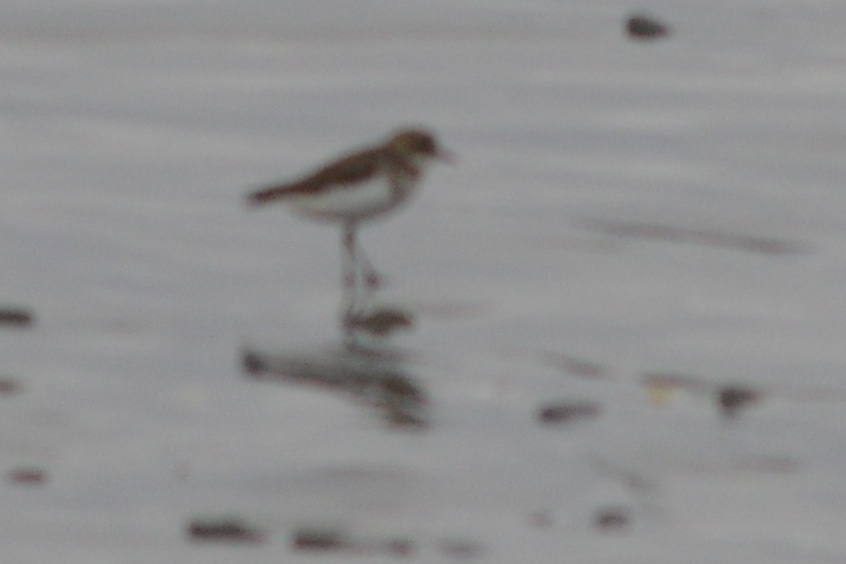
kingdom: Animalia
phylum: Chordata
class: Aves
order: Charadriiformes
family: Charadriidae
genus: Anarhynchus
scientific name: Anarhynchus
